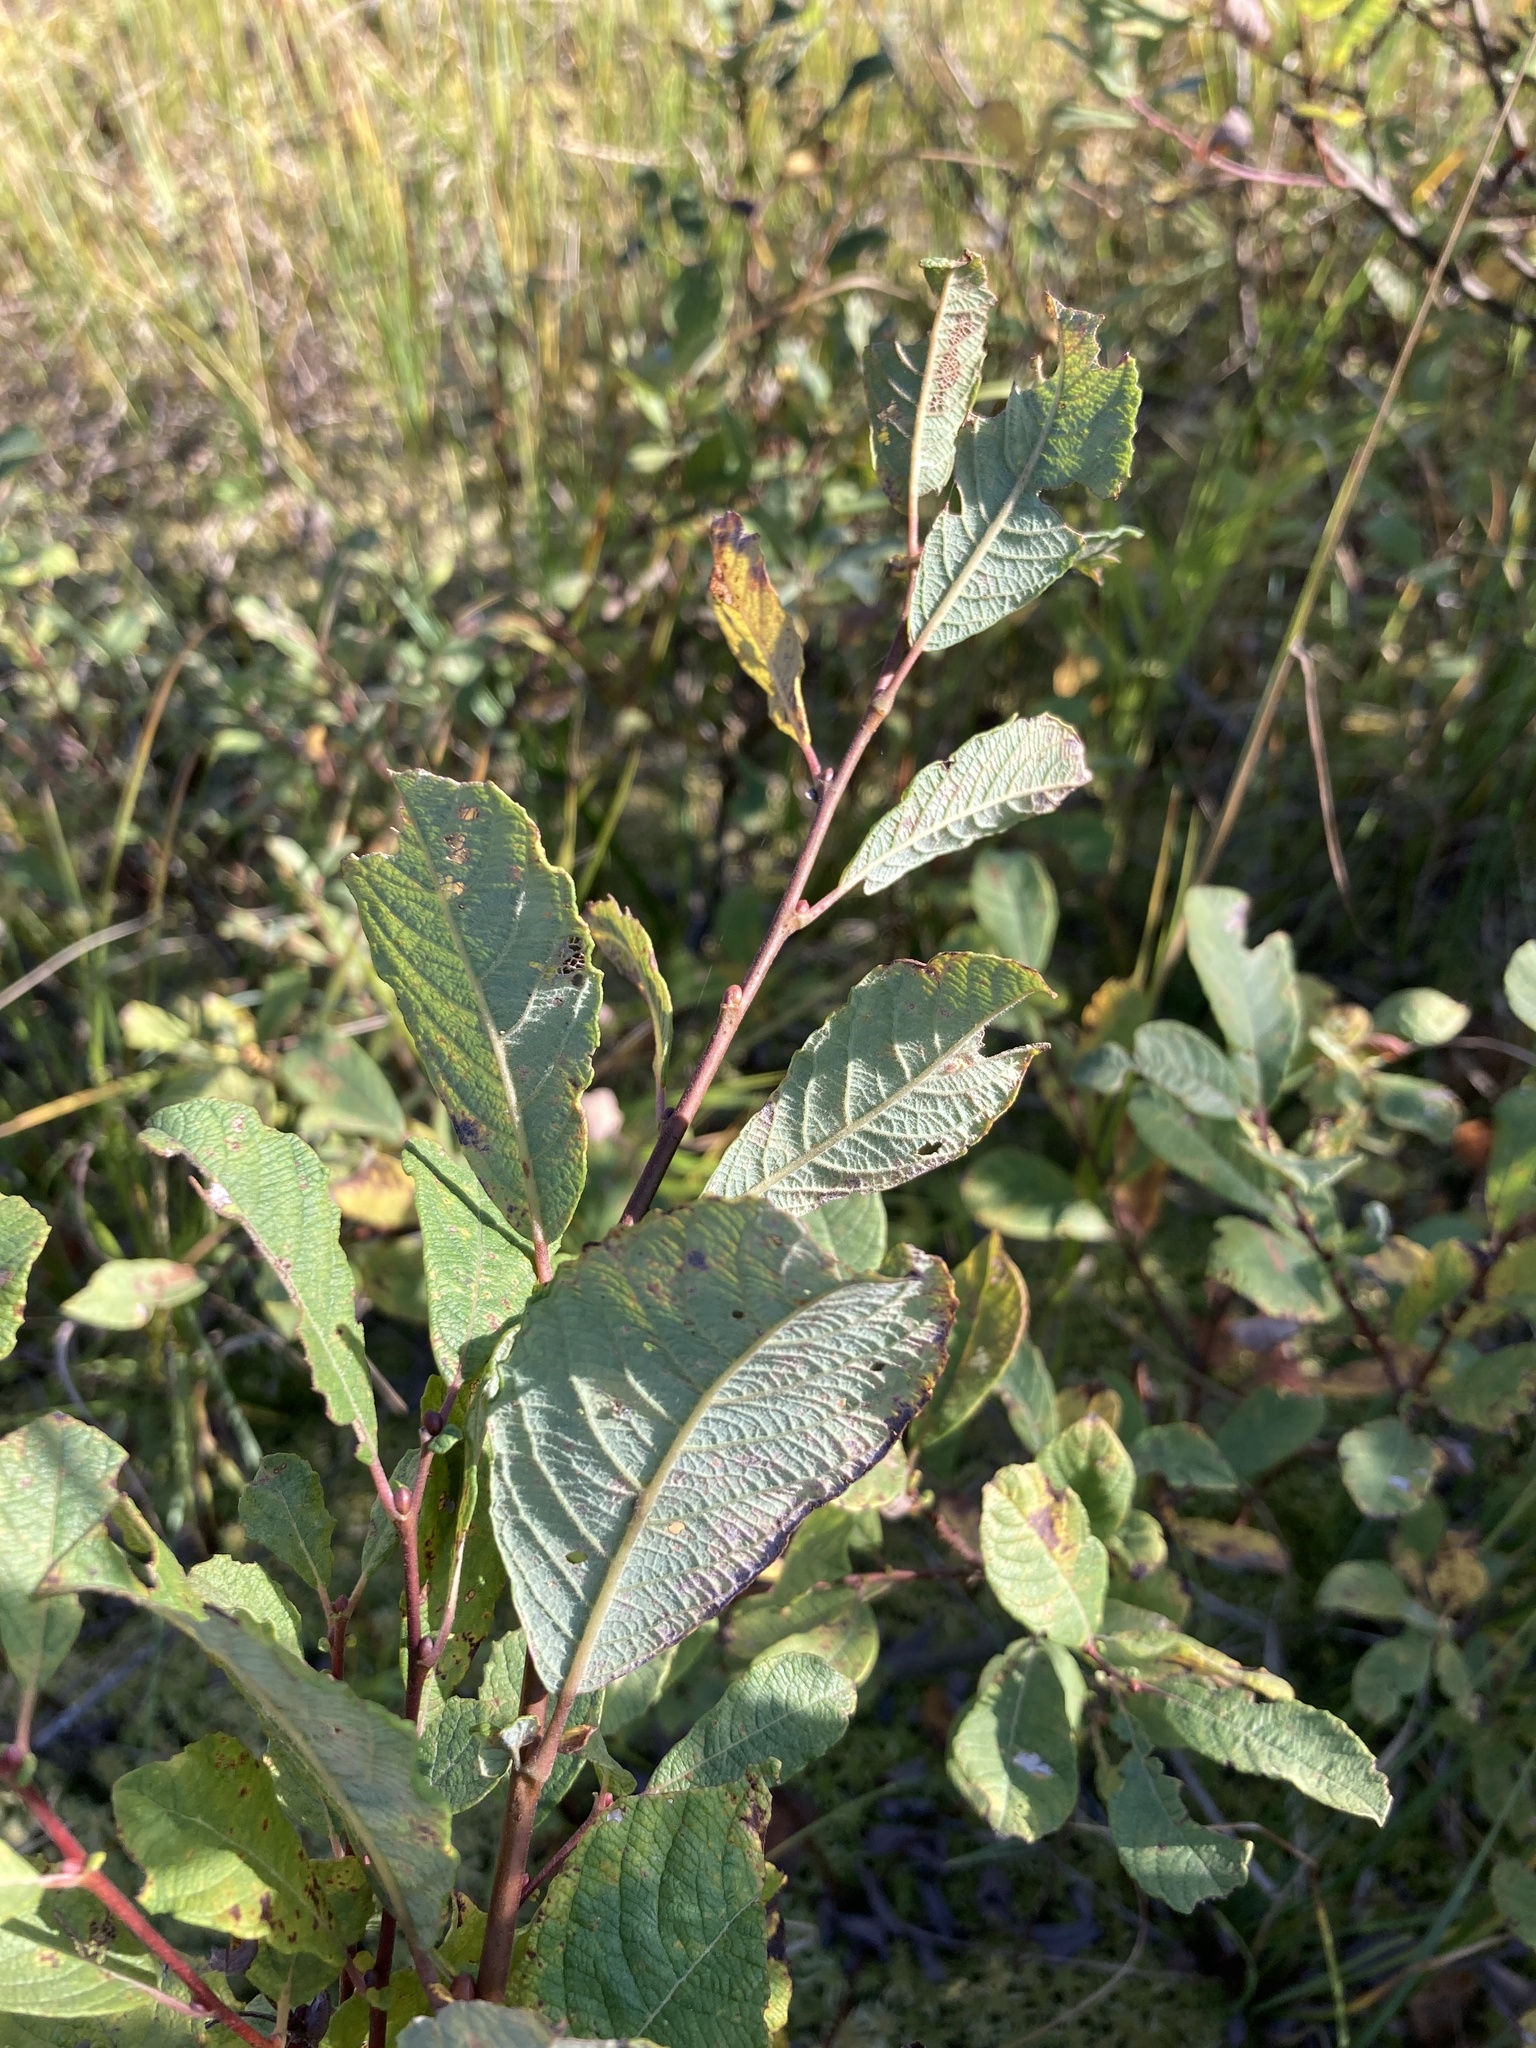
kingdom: Plantae
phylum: Tracheophyta
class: Magnoliopsida
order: Malpighiales
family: Salicaceae
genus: Salix
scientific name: Salix aurita
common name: Eared willow
